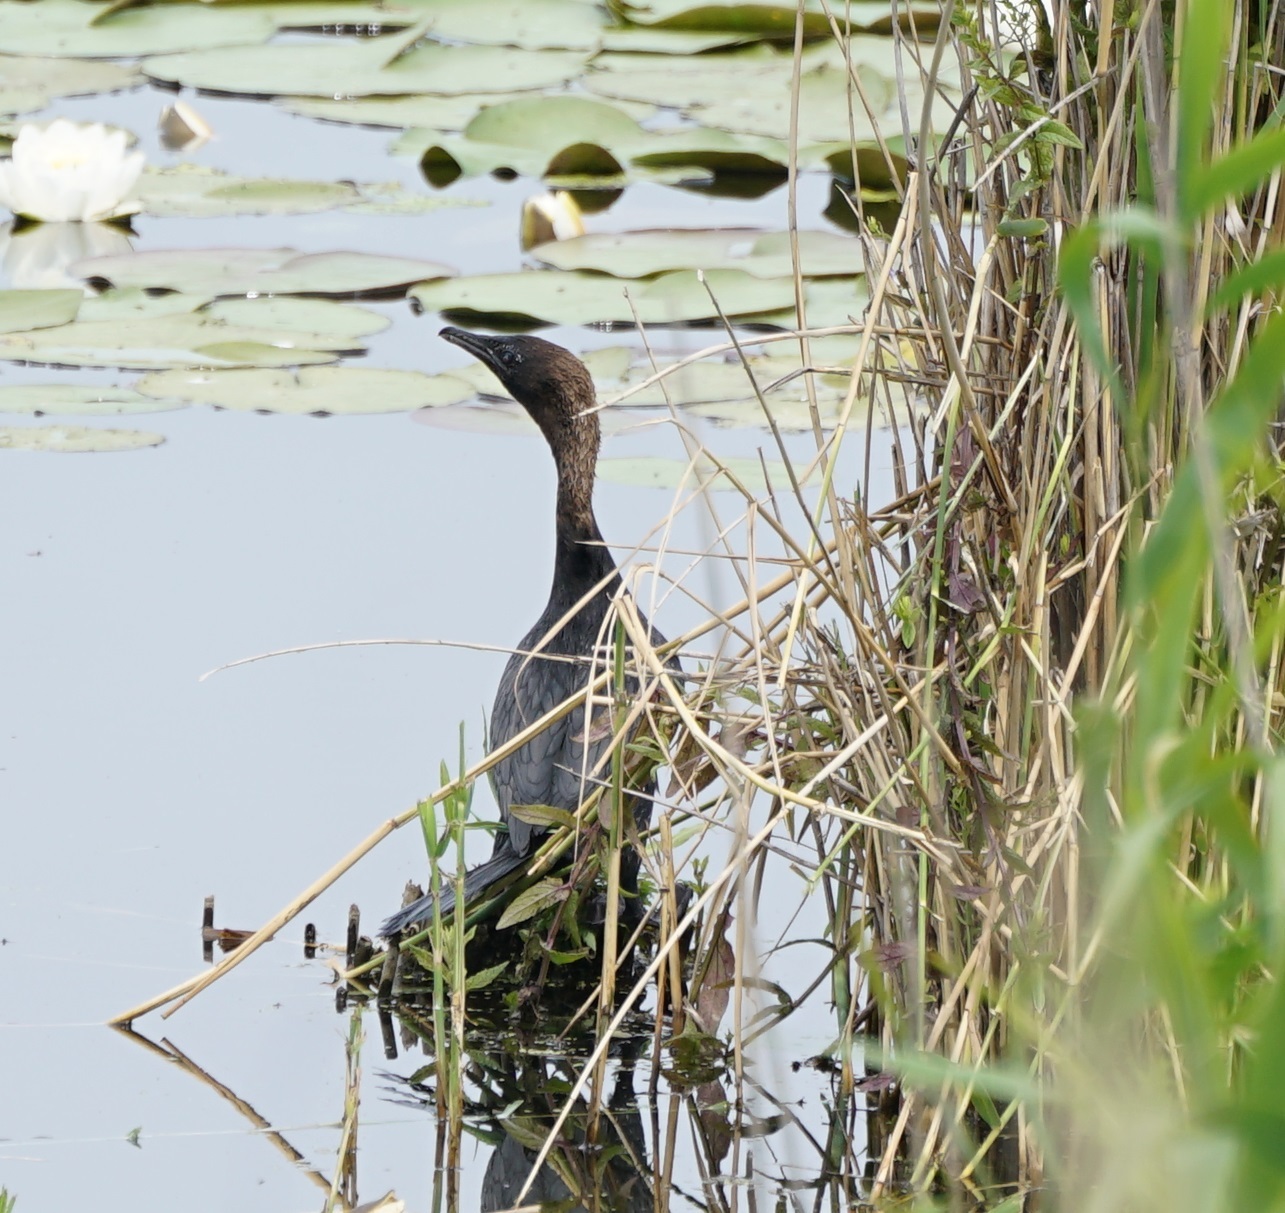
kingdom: Animalia
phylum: Chordata
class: Aves
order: Suliformes
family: Phalacrocoracidae
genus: Microcarbo
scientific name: Microcarbo pygmaeus
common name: Pygmy cormorant
